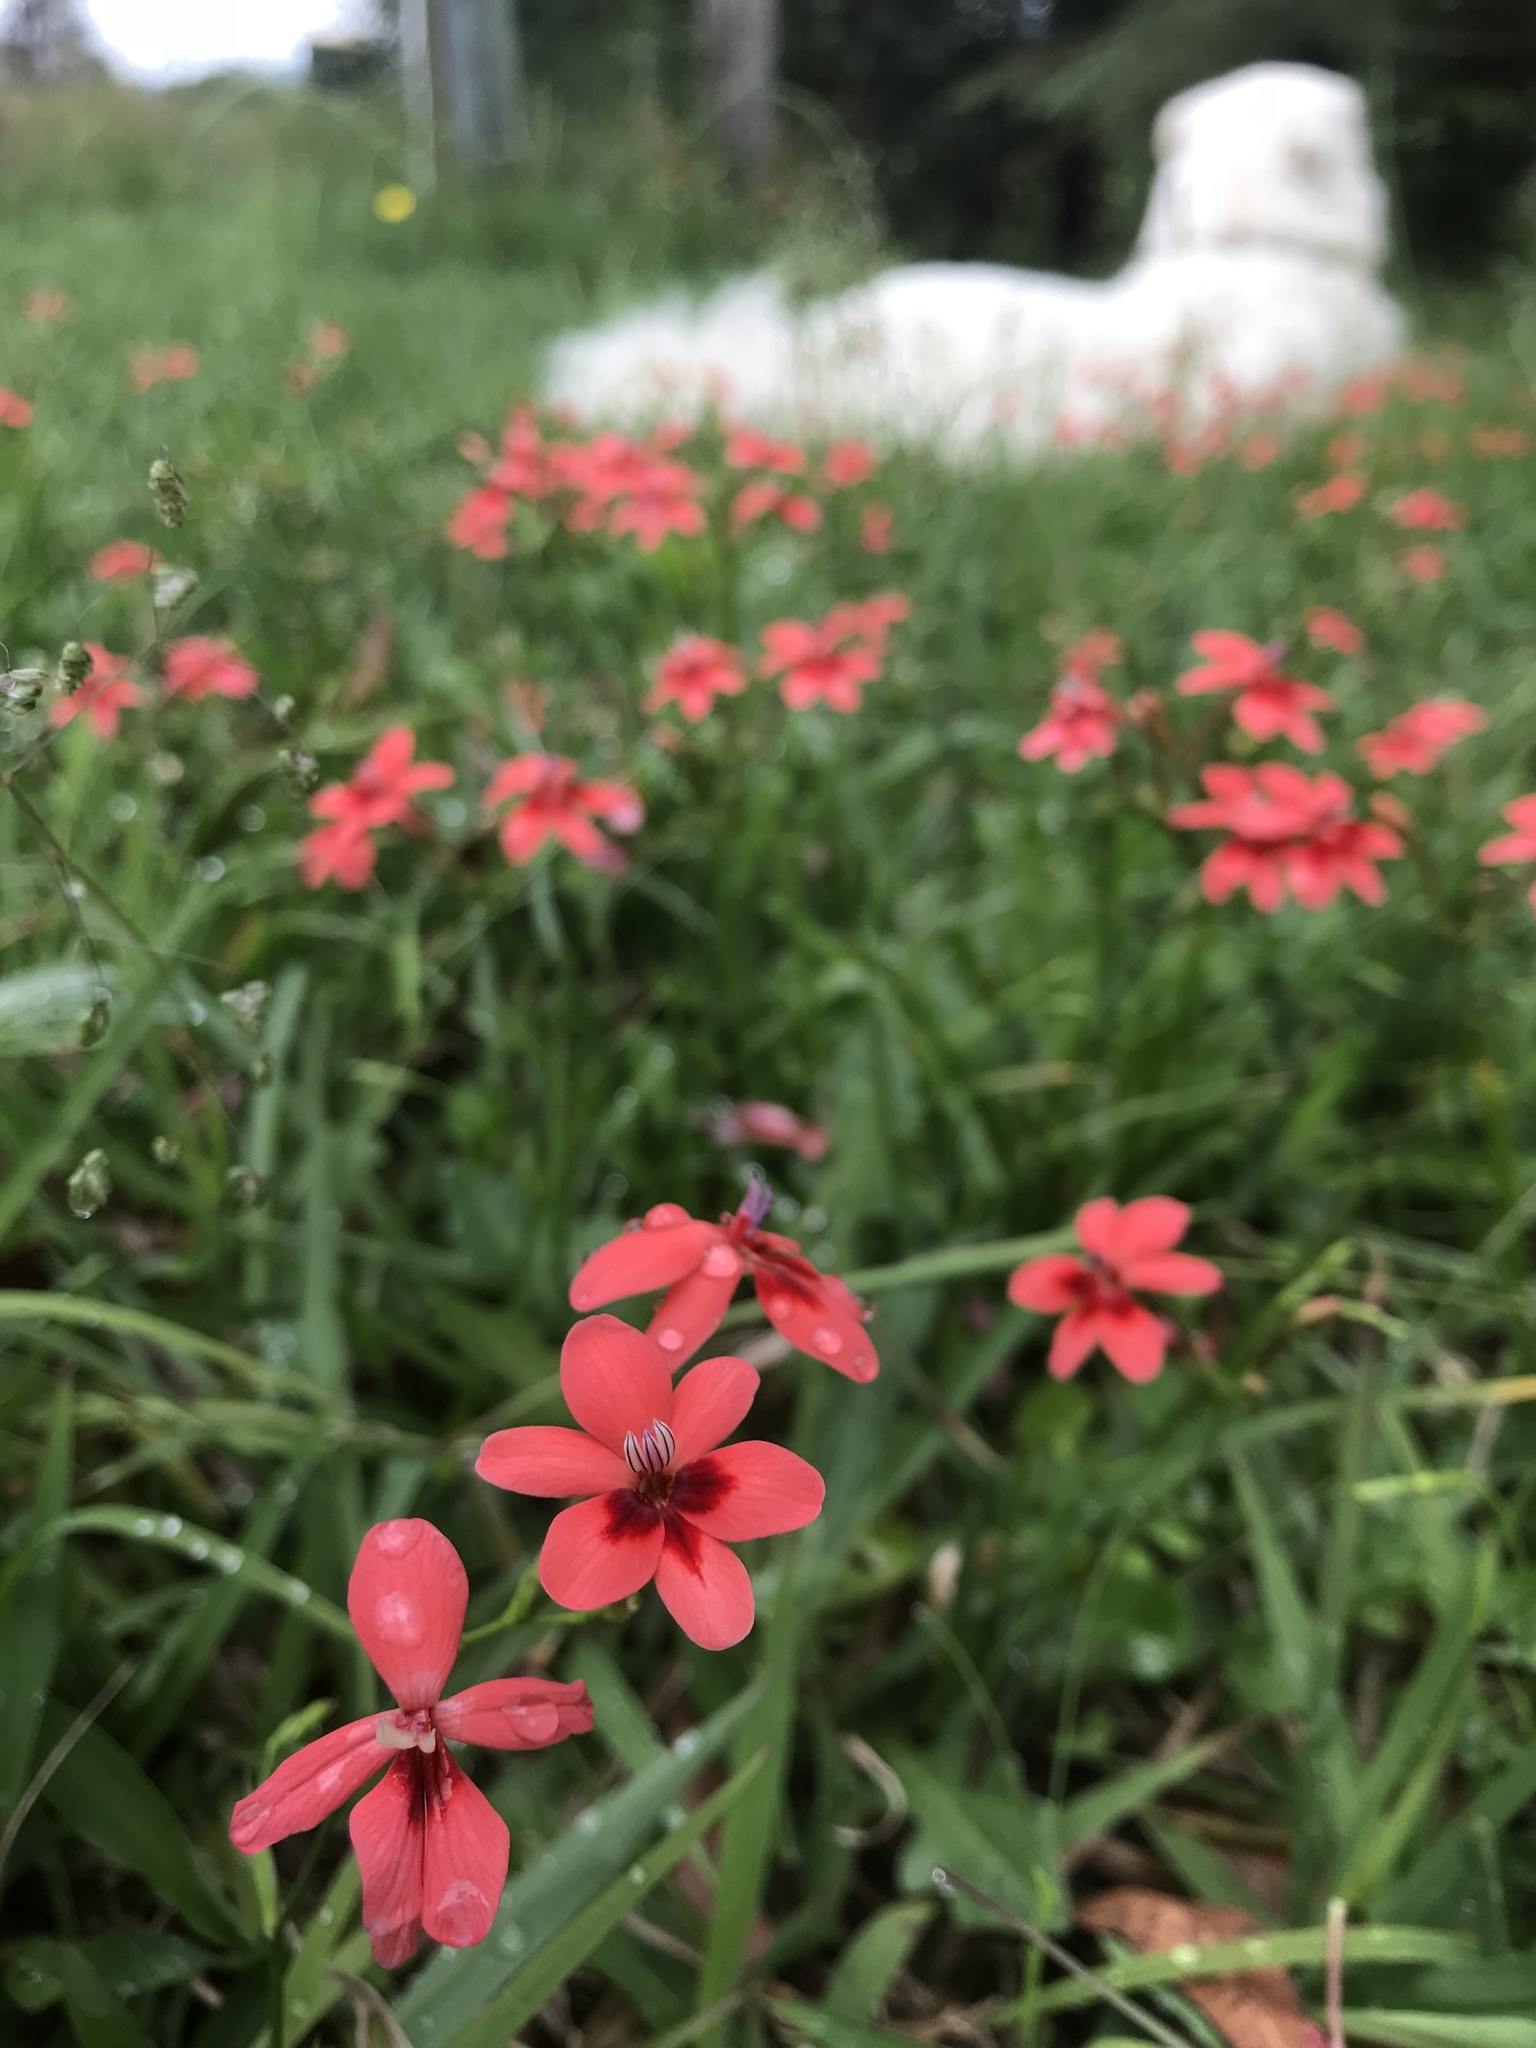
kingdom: Plantae
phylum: Tracheophyta
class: Liliopsida
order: Asparagales
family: Iridaceae
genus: Freesia
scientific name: Freesia laxa
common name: False freesia
